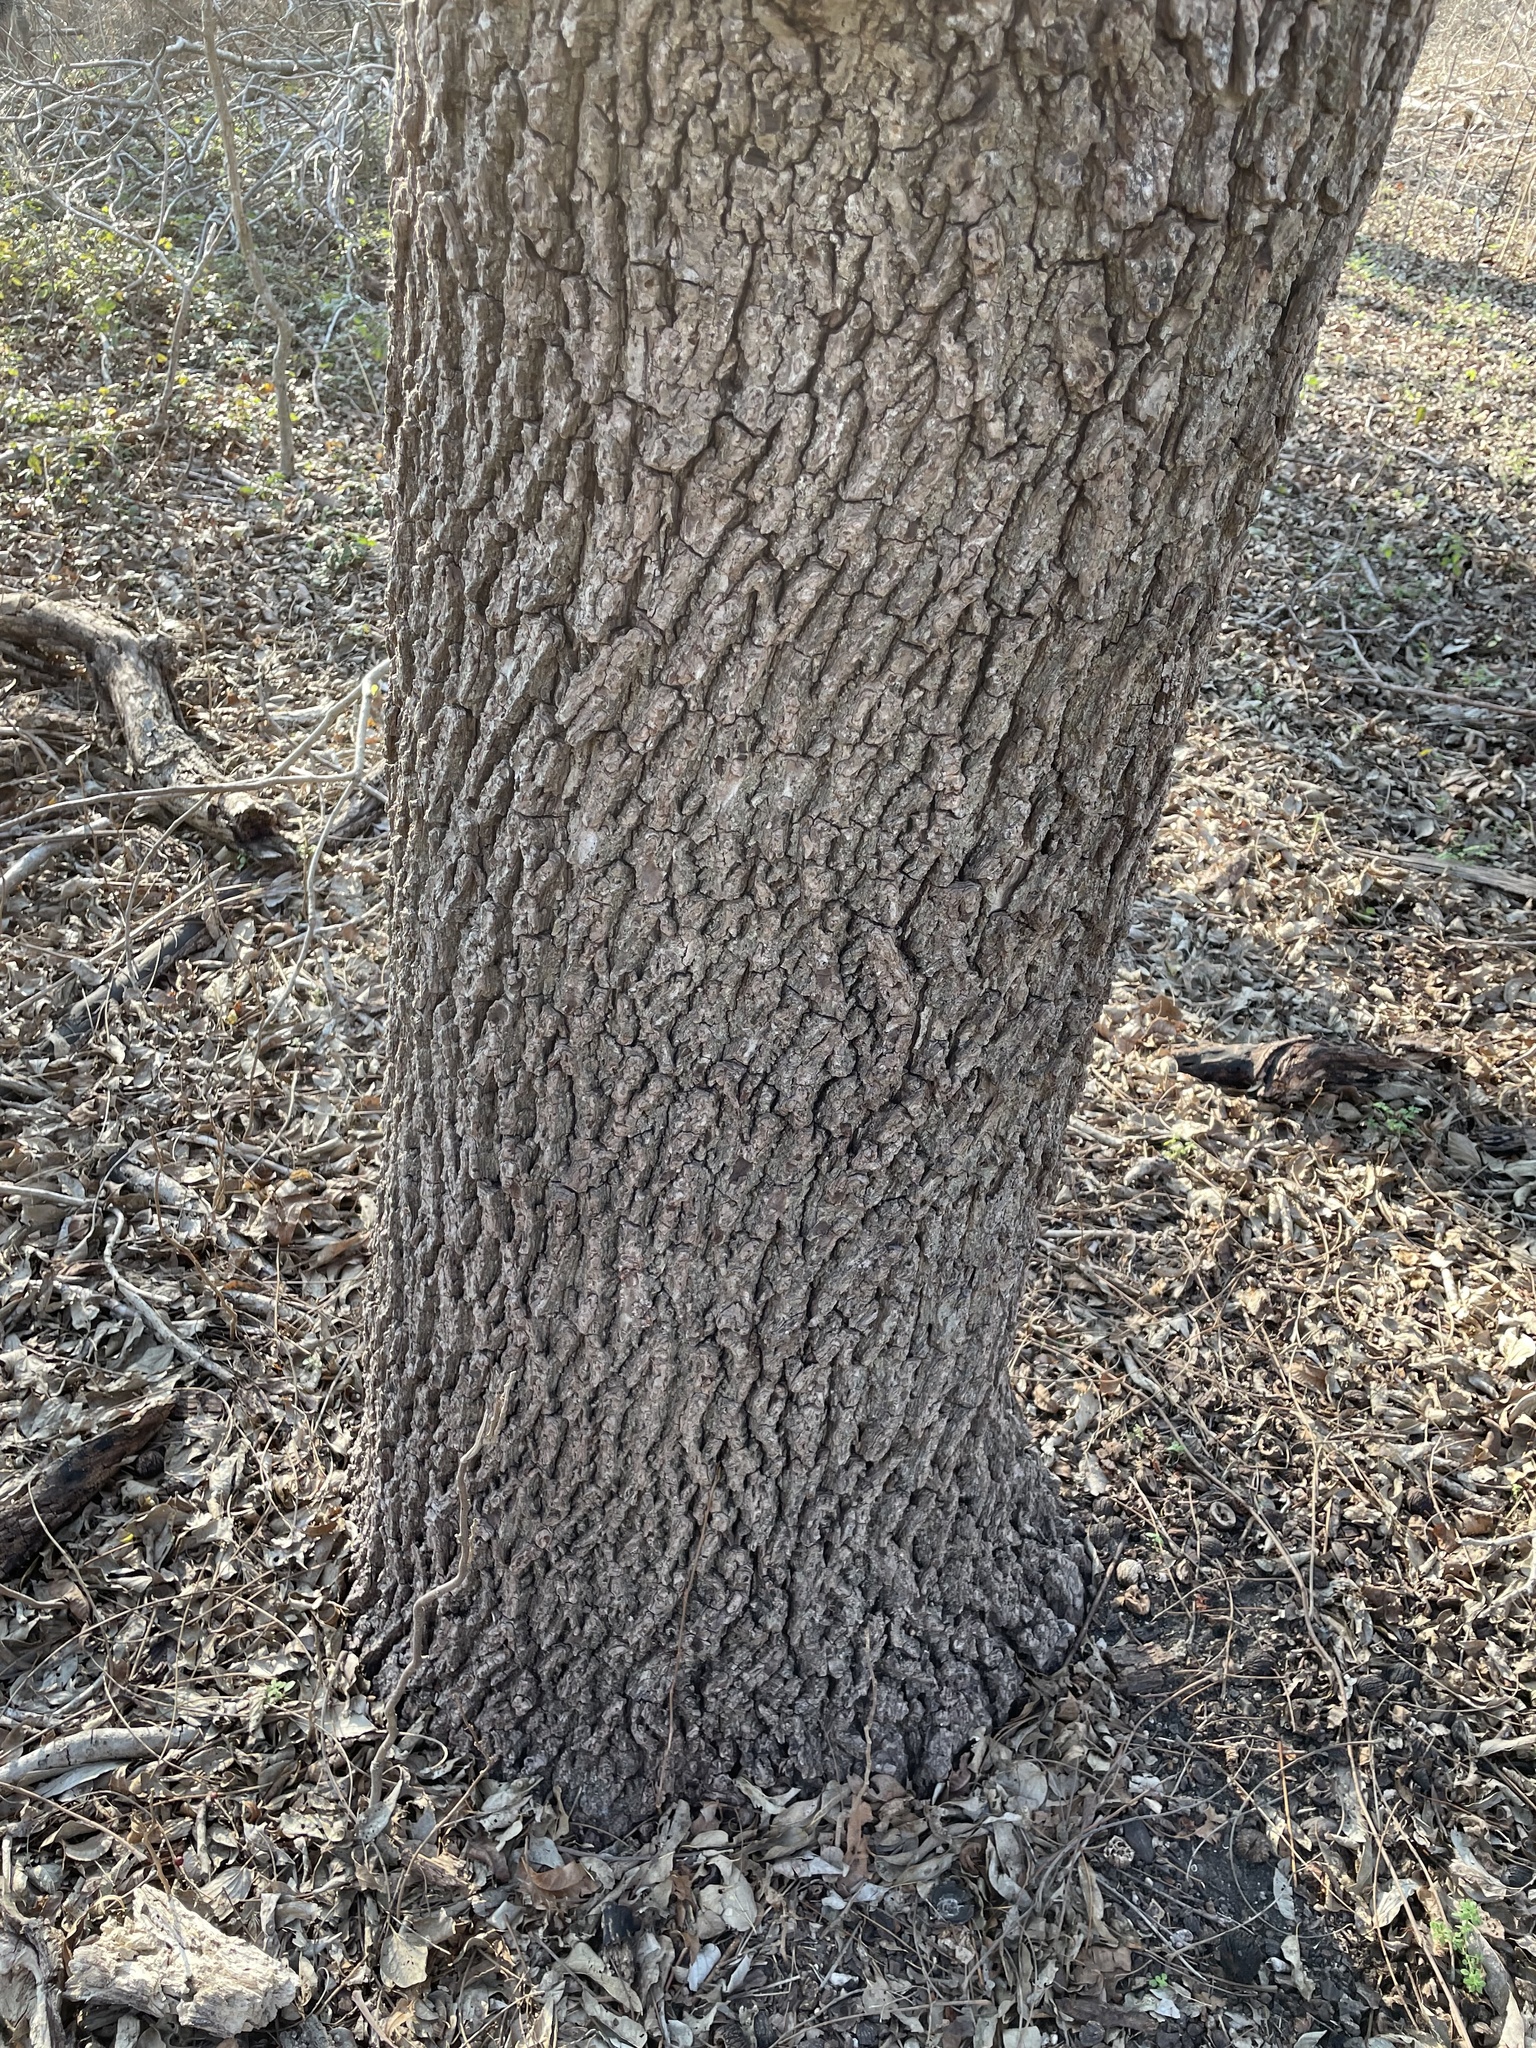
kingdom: Plantae
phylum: Tracheophyta
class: Magnoliopsida
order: Fagales
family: Juglandaceae
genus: Juglans
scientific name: Juglans nigra
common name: Black walnut
